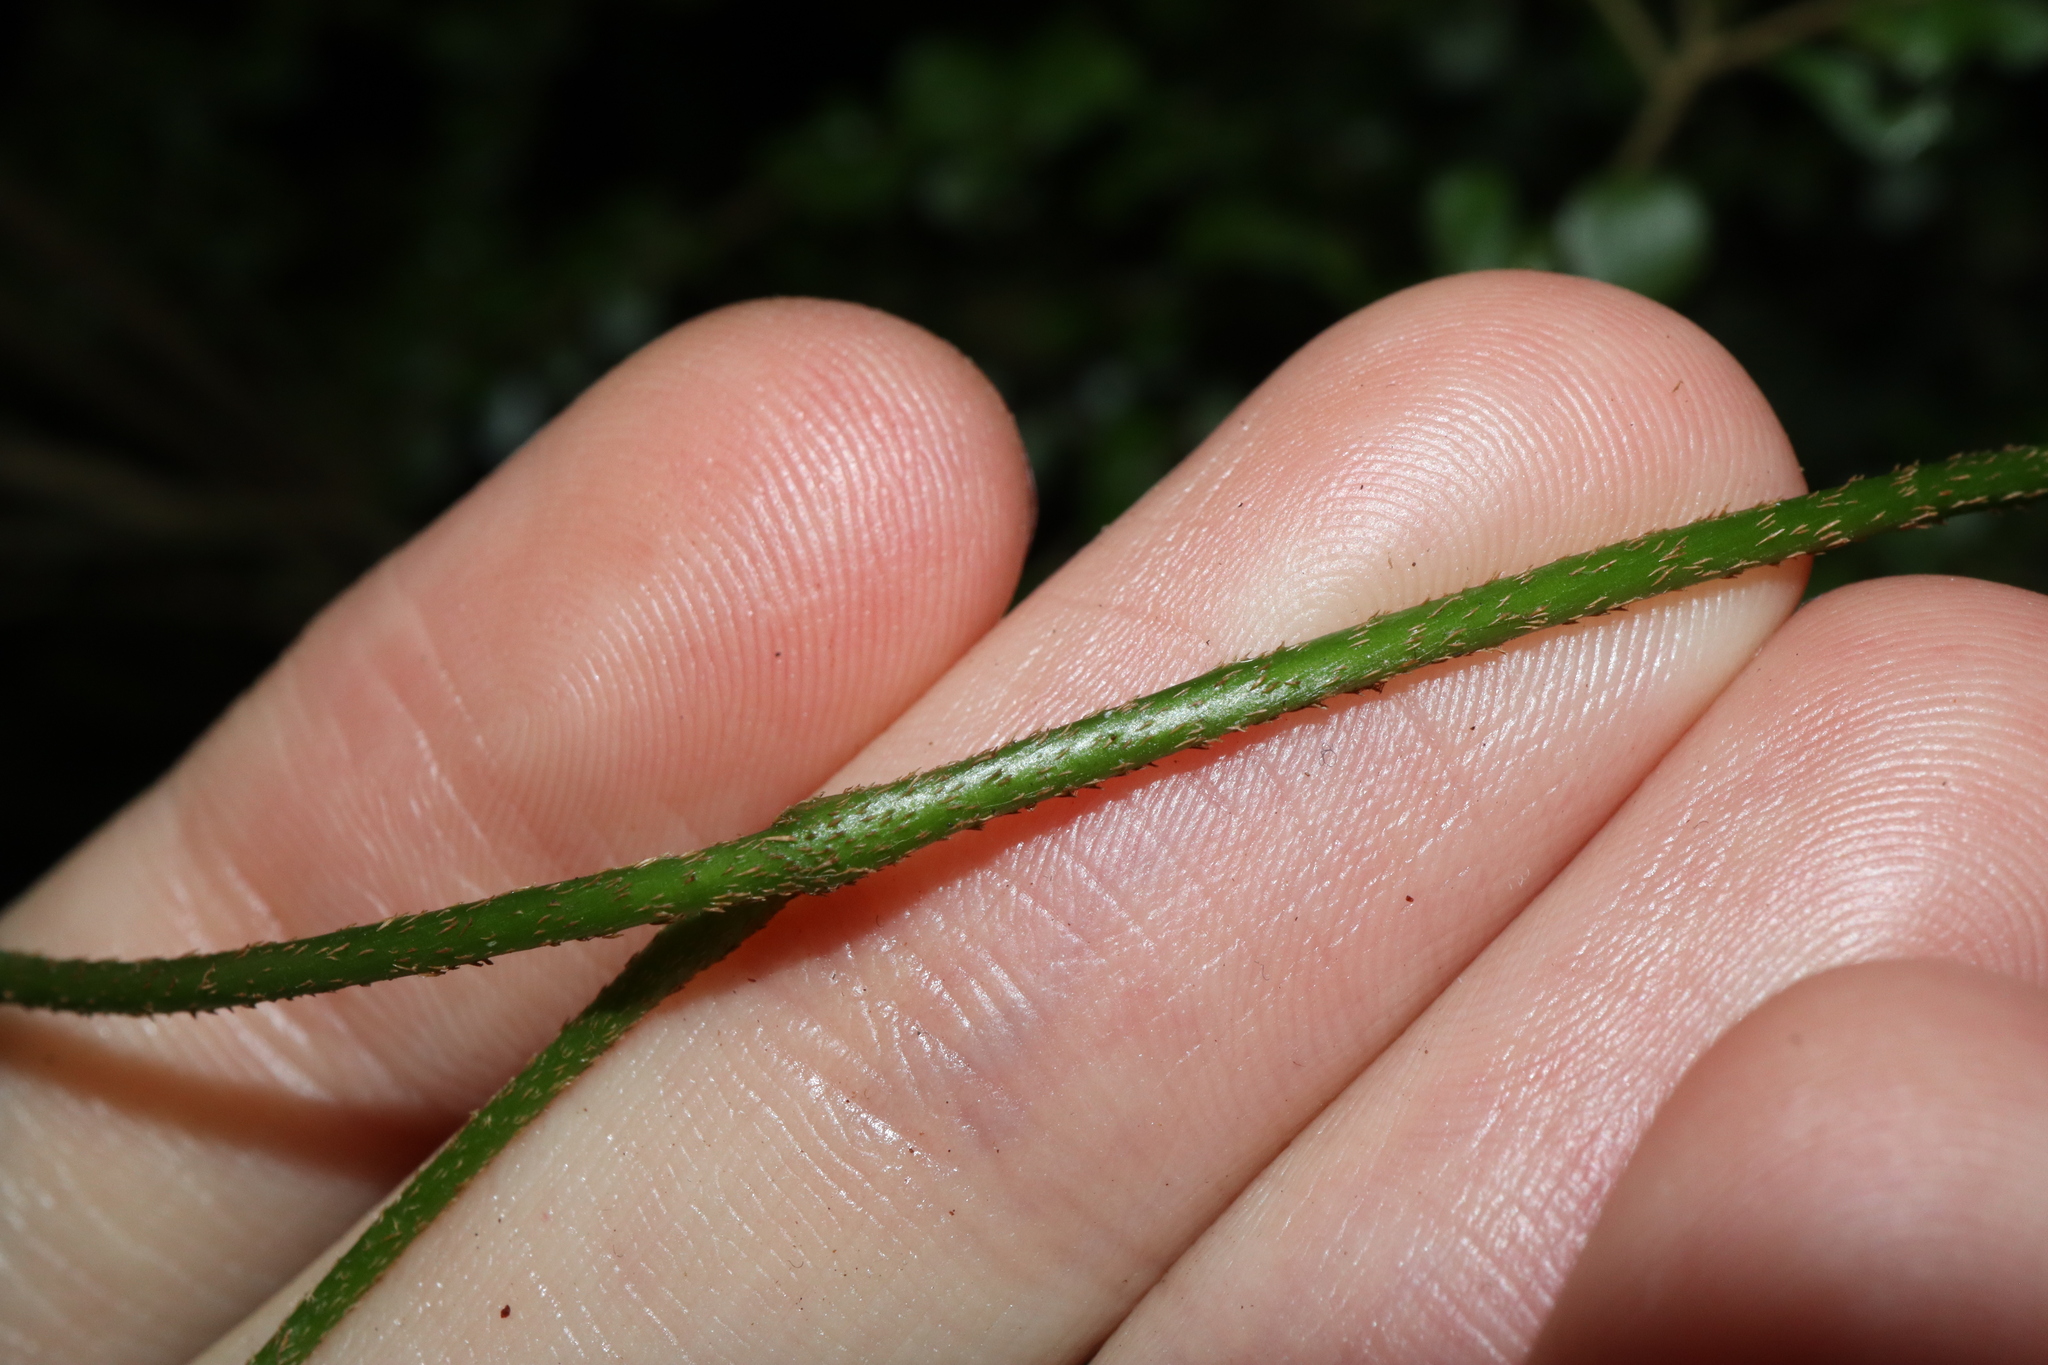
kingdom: Plantae
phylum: Tracheophyta
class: Magnoliopsida
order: Apiales
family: Araliaceae
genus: Cephalaralia
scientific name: Cephalaralia cephalobotrys
